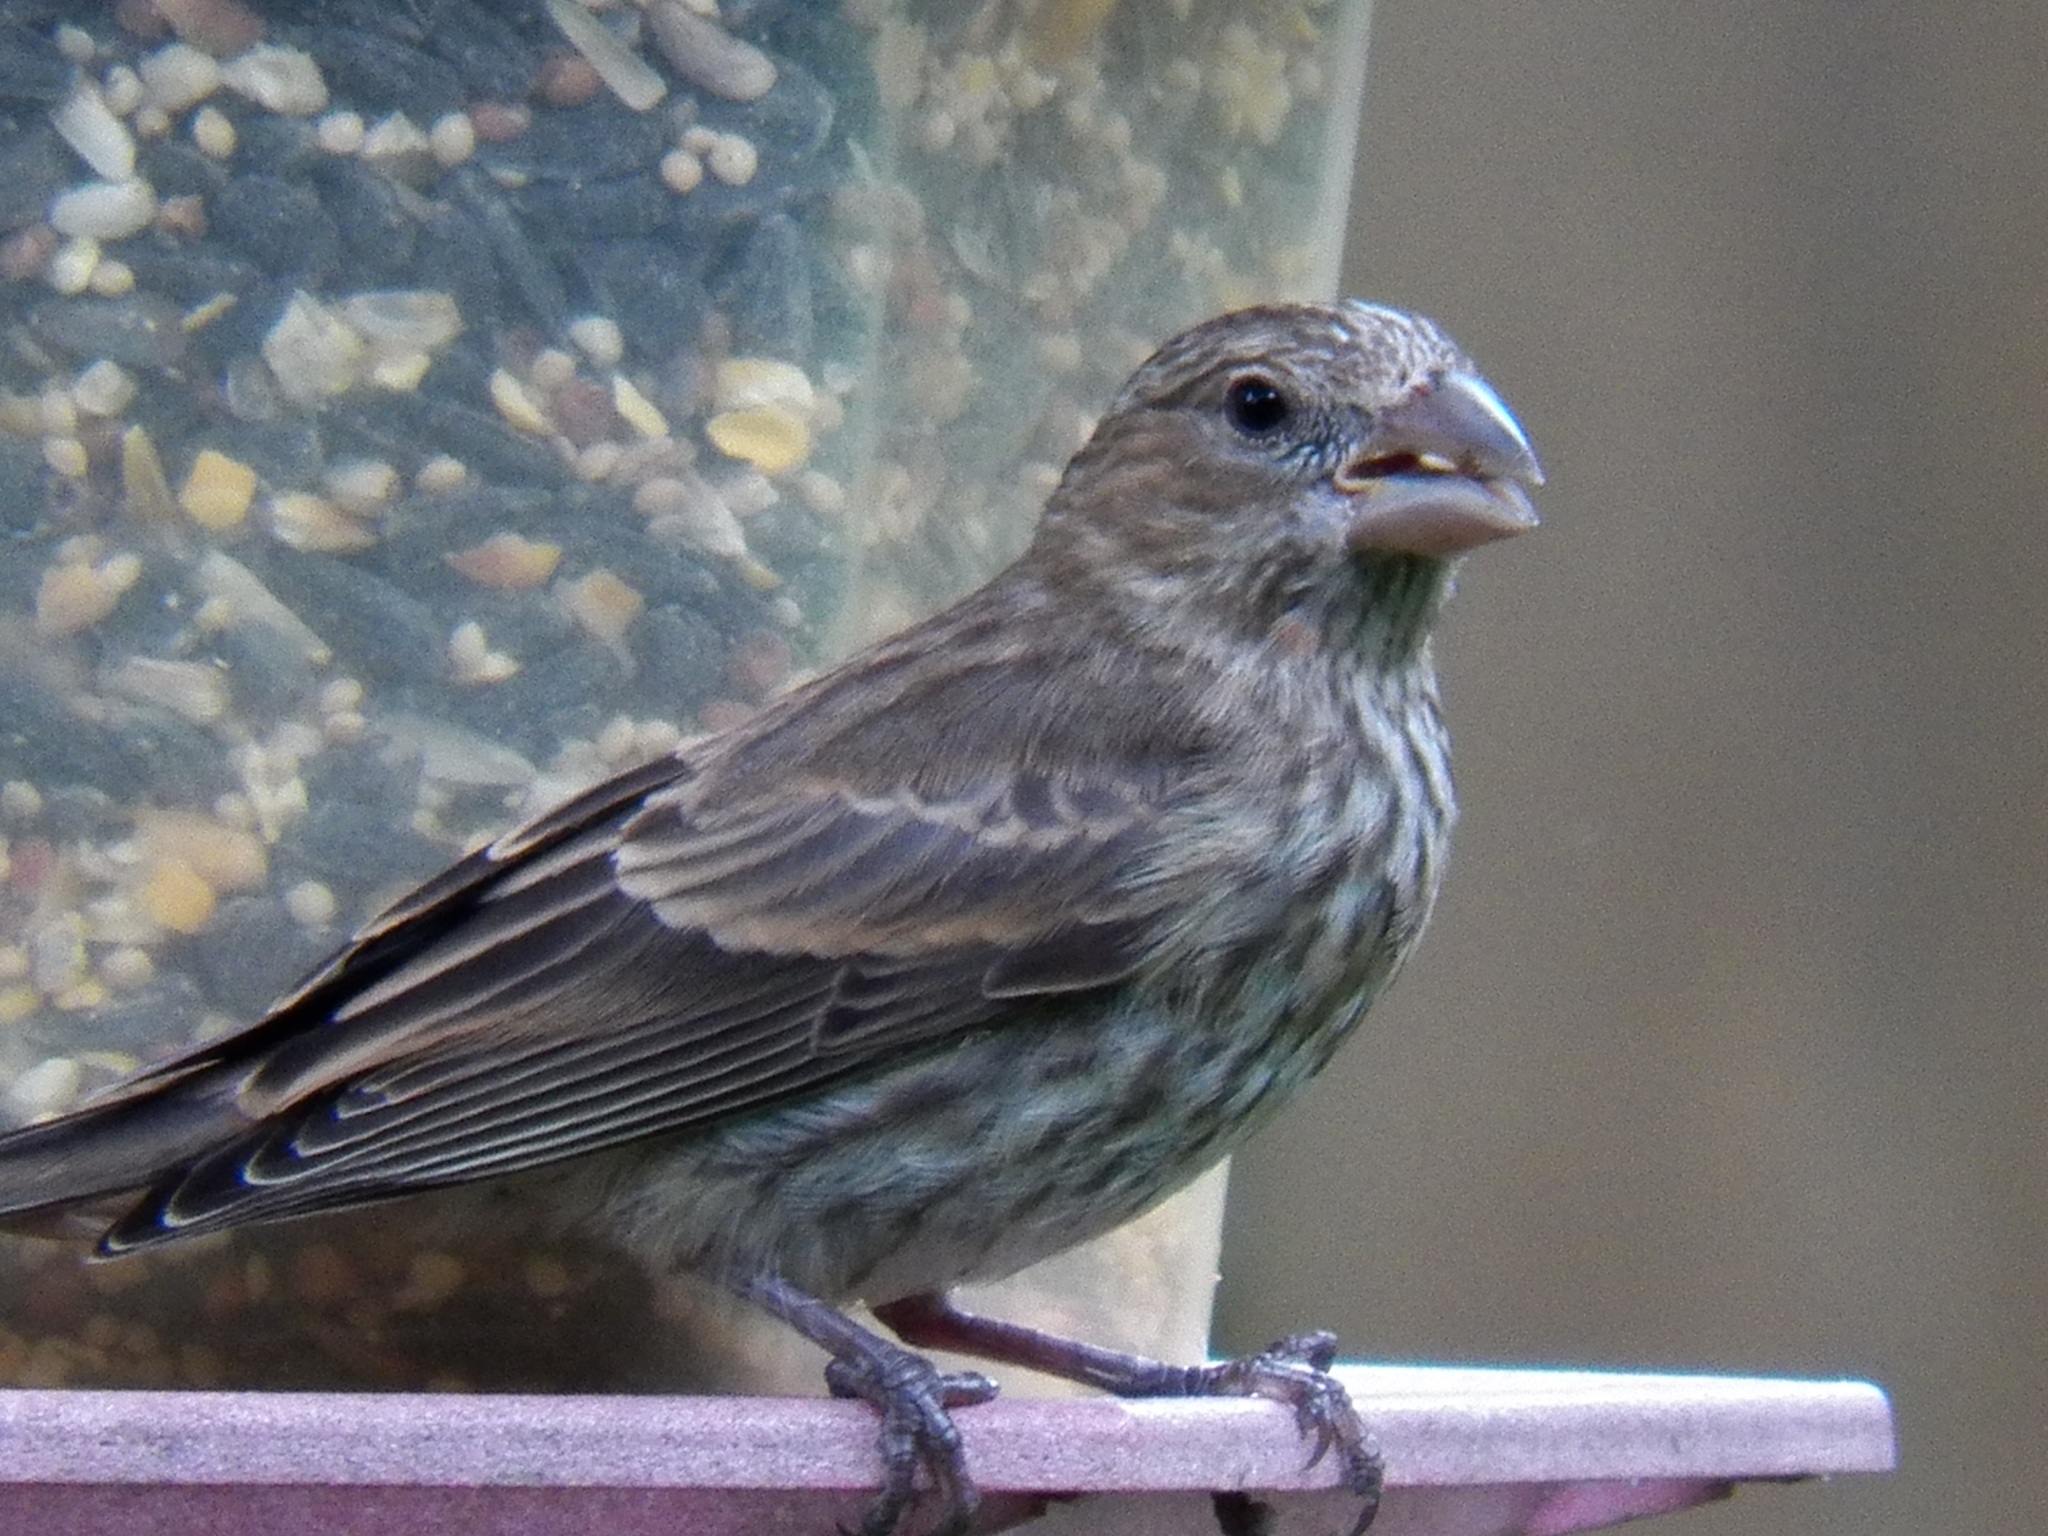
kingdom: Animalia
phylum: Chordata
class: Aves
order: Passeriformes
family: Fringillidae
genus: Haemorhous
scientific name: Haemorhous mexicanus
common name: House finch
